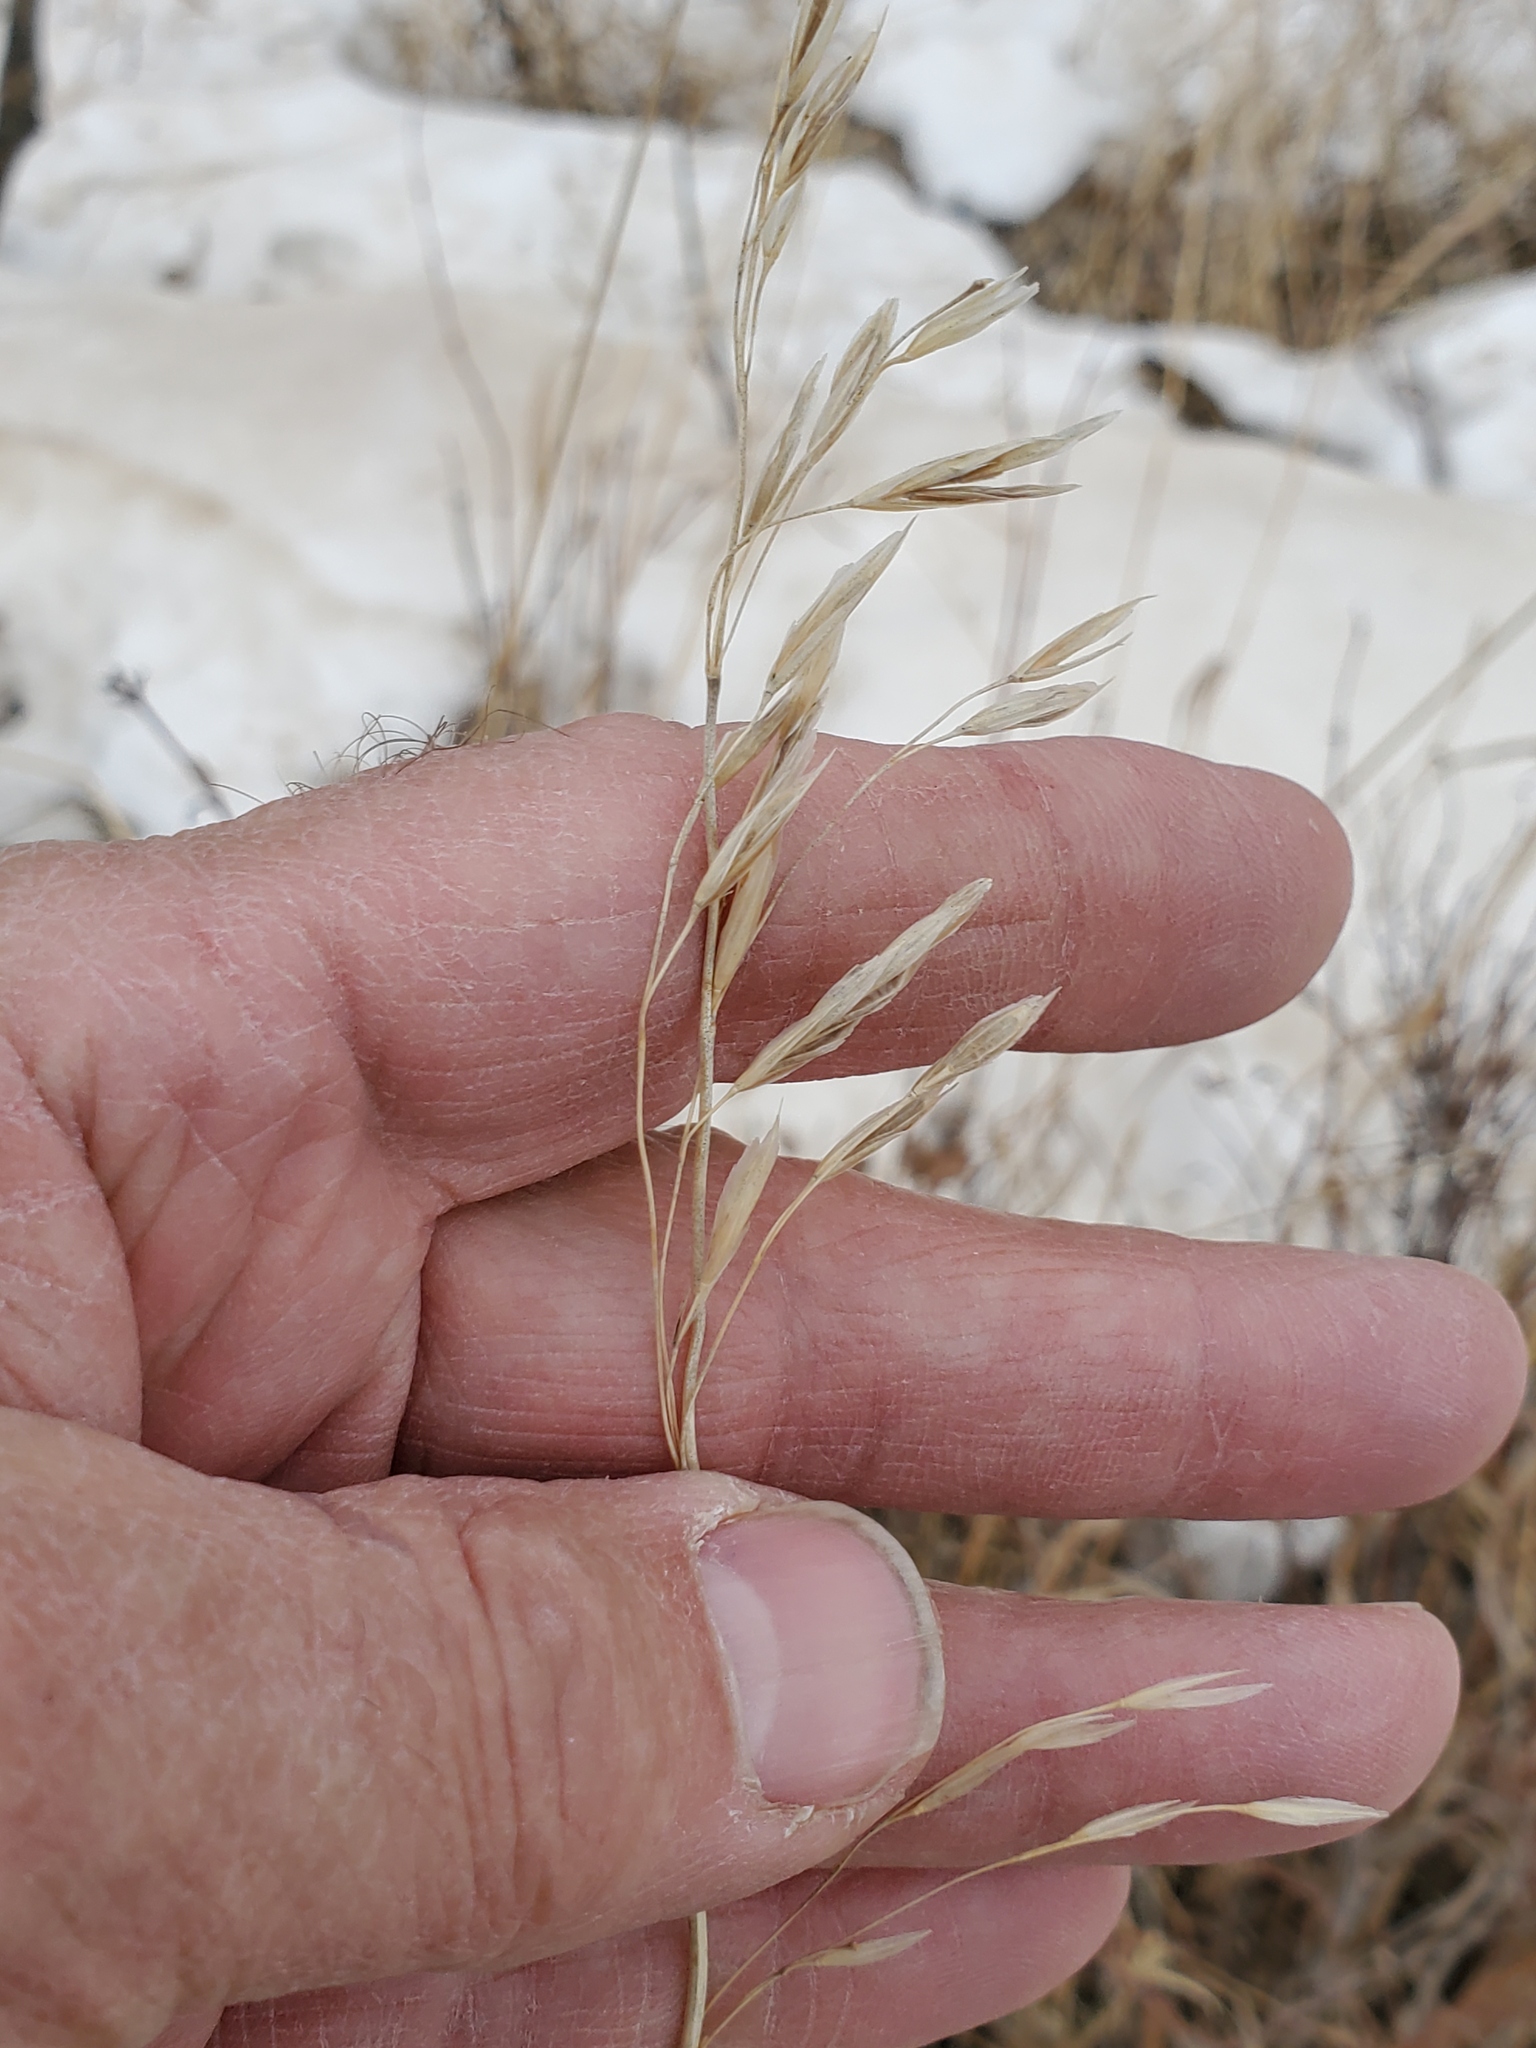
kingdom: Plantae
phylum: Tracheophyta
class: Liliopsida
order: Poales
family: Poaceae
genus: Bromus
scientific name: Bromus inermis
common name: Smooth brome
